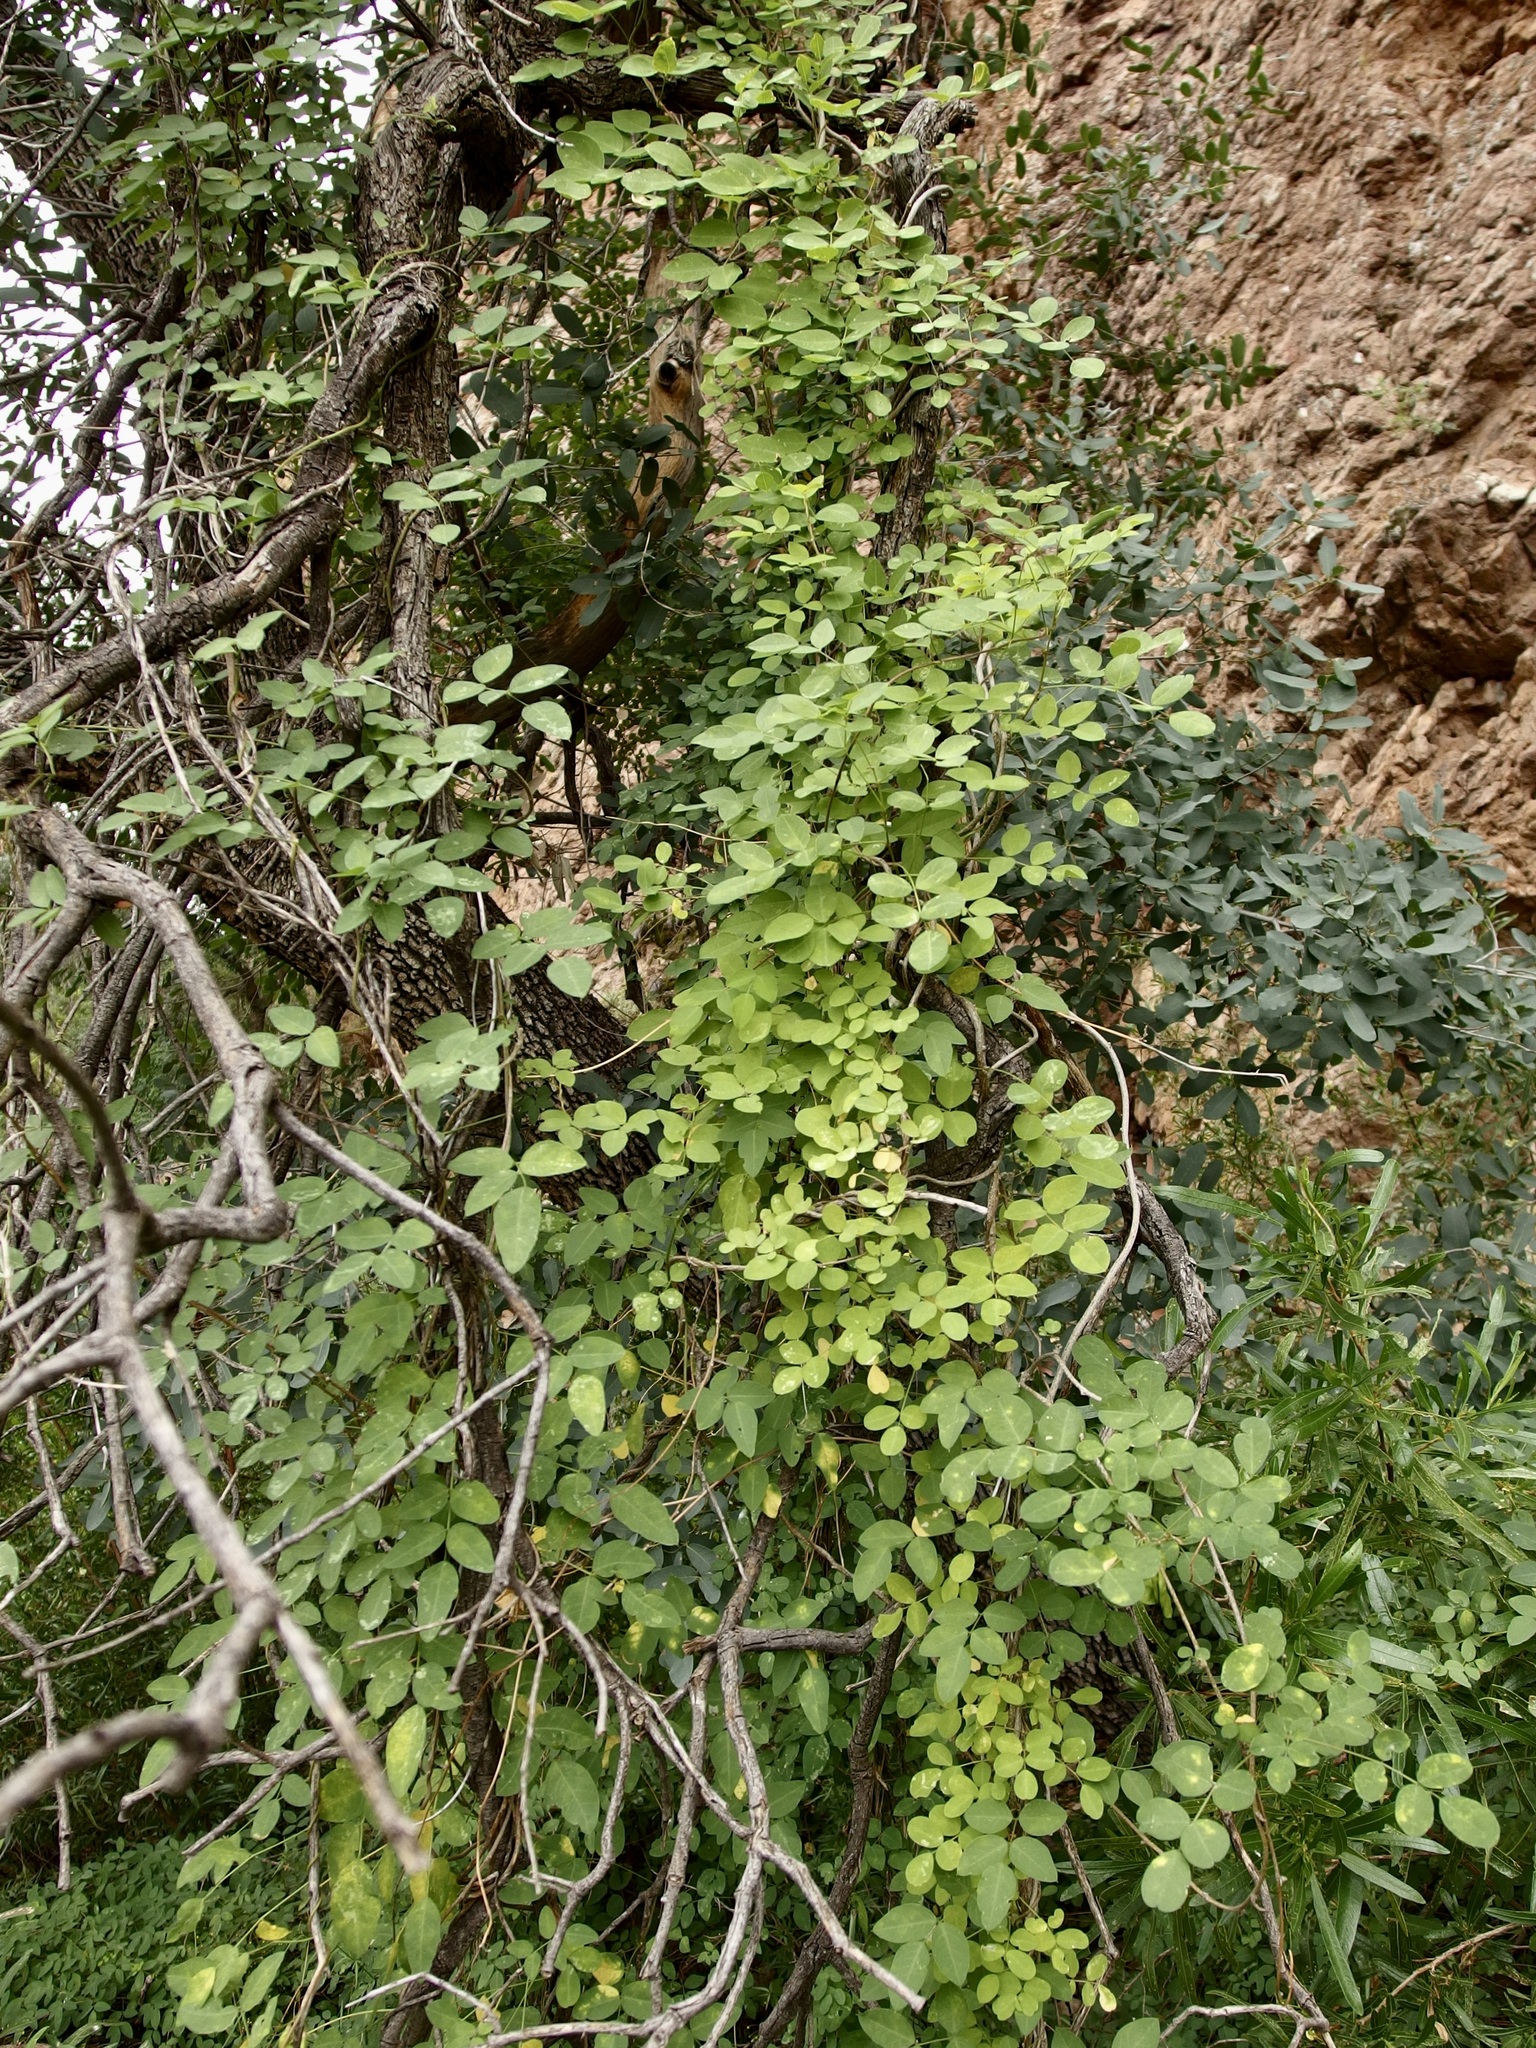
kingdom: Plantae
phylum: Tracheophyta
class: Magnoliopsida
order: Fabales
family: Fabaceae
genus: Nissolia
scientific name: Nissolia schottii
